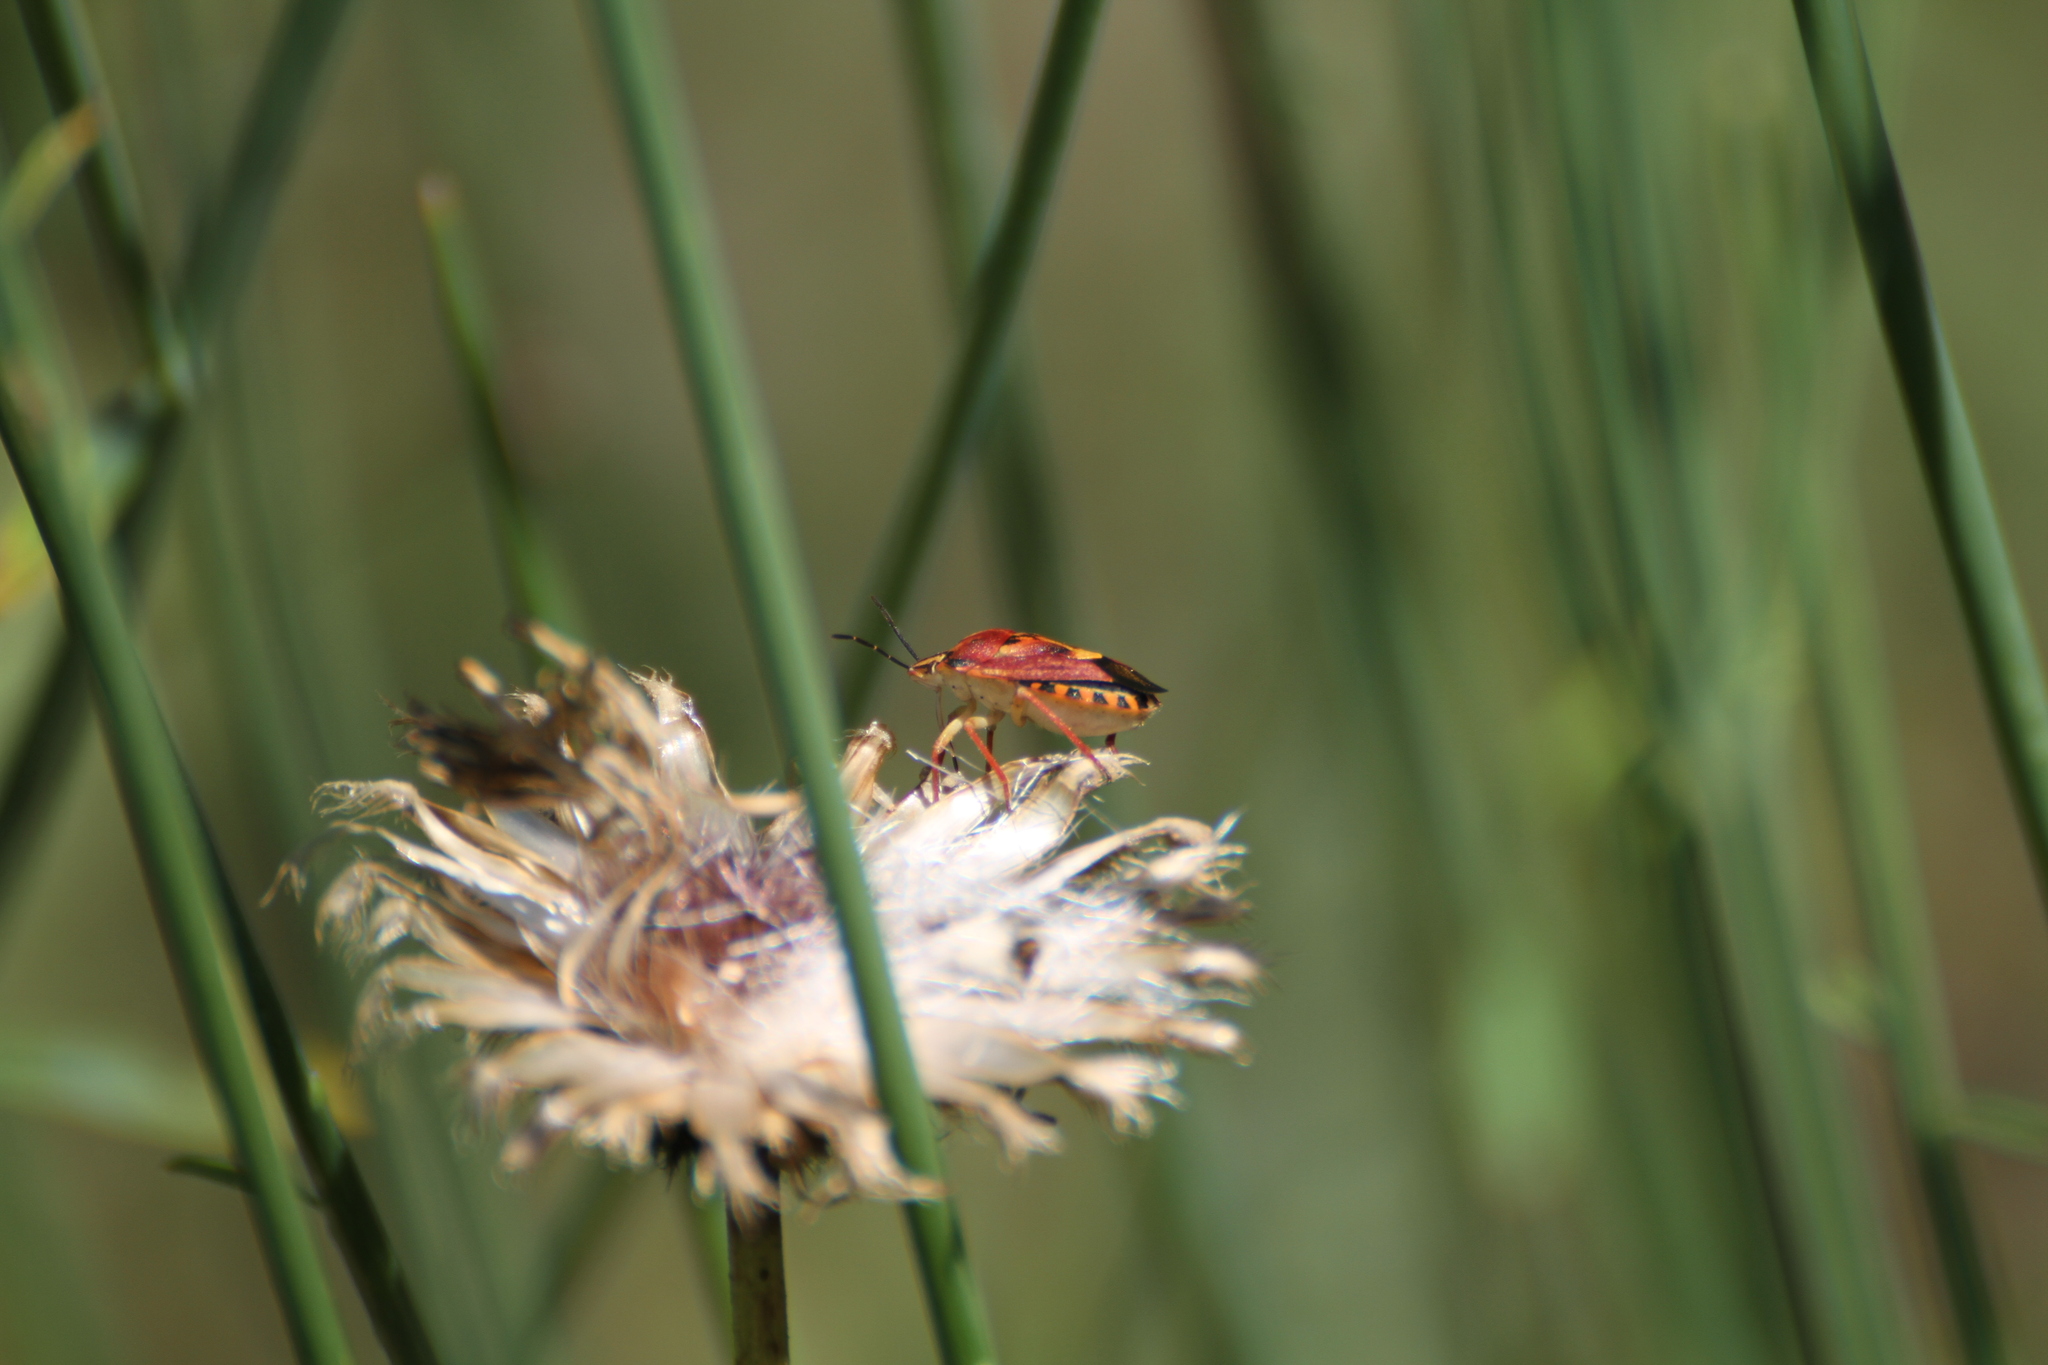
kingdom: Animalia
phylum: Arthropoda
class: Insecta
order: Hemiptera
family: Pentatomidae
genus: Carpocoris
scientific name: Carpocoris purpureipennis
